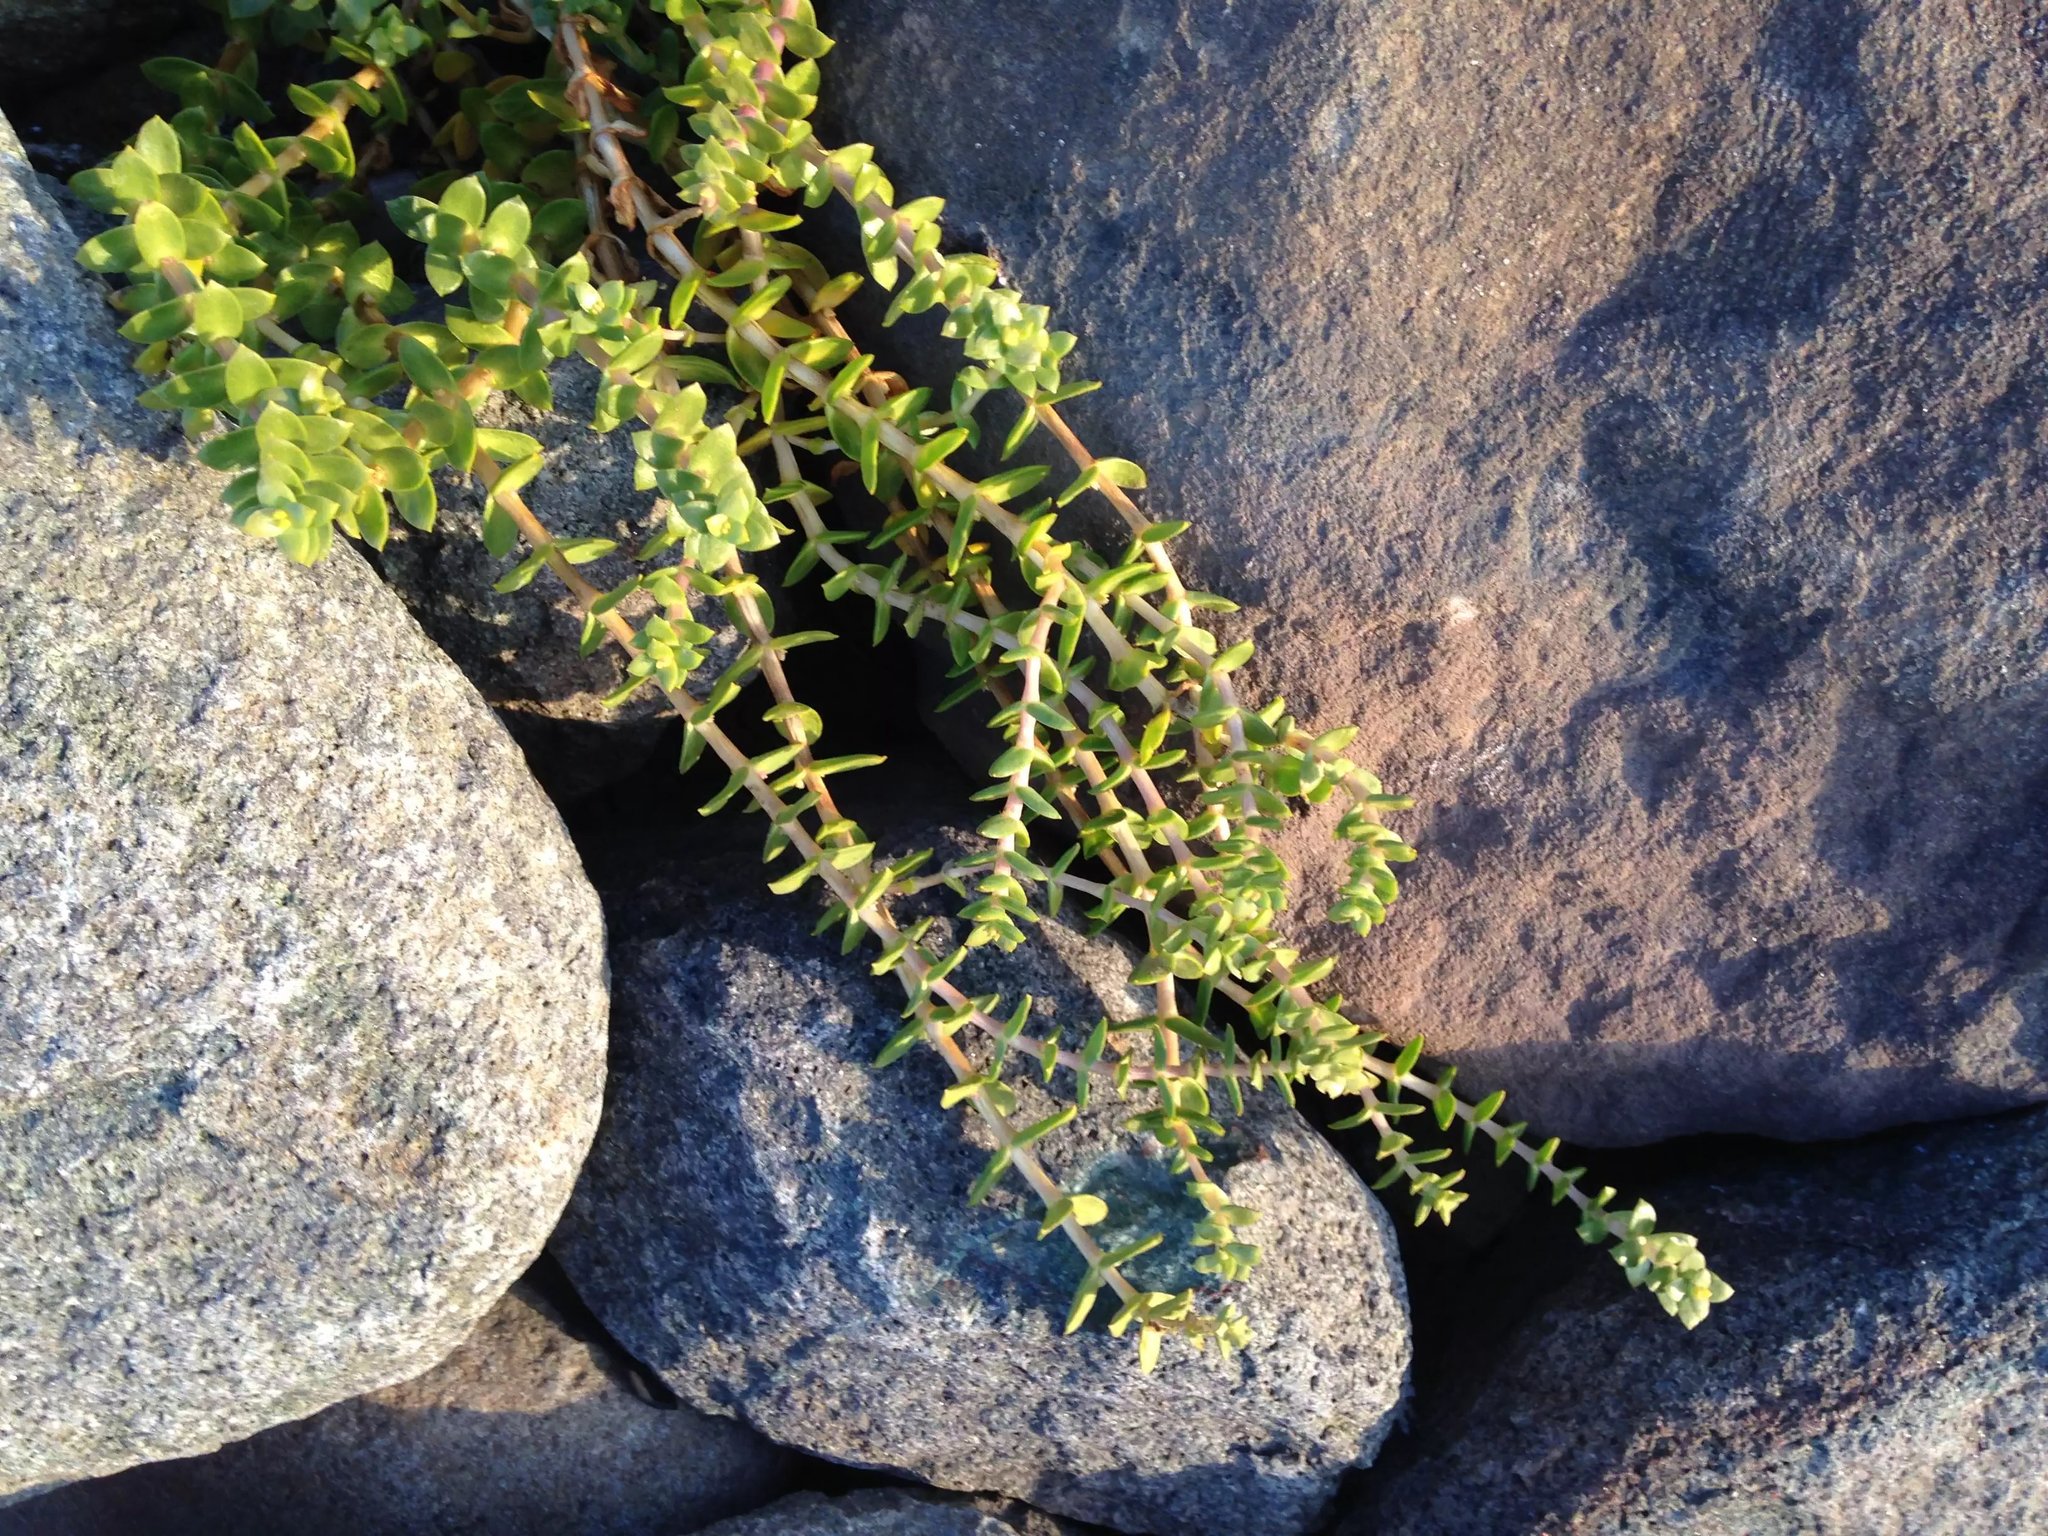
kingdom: Plantae
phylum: Tracheophyta
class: Magnoliopsida
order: Ericales
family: Primulaceae
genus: Lysimachia
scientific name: Lysimachia maritima
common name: Sea milkwort
